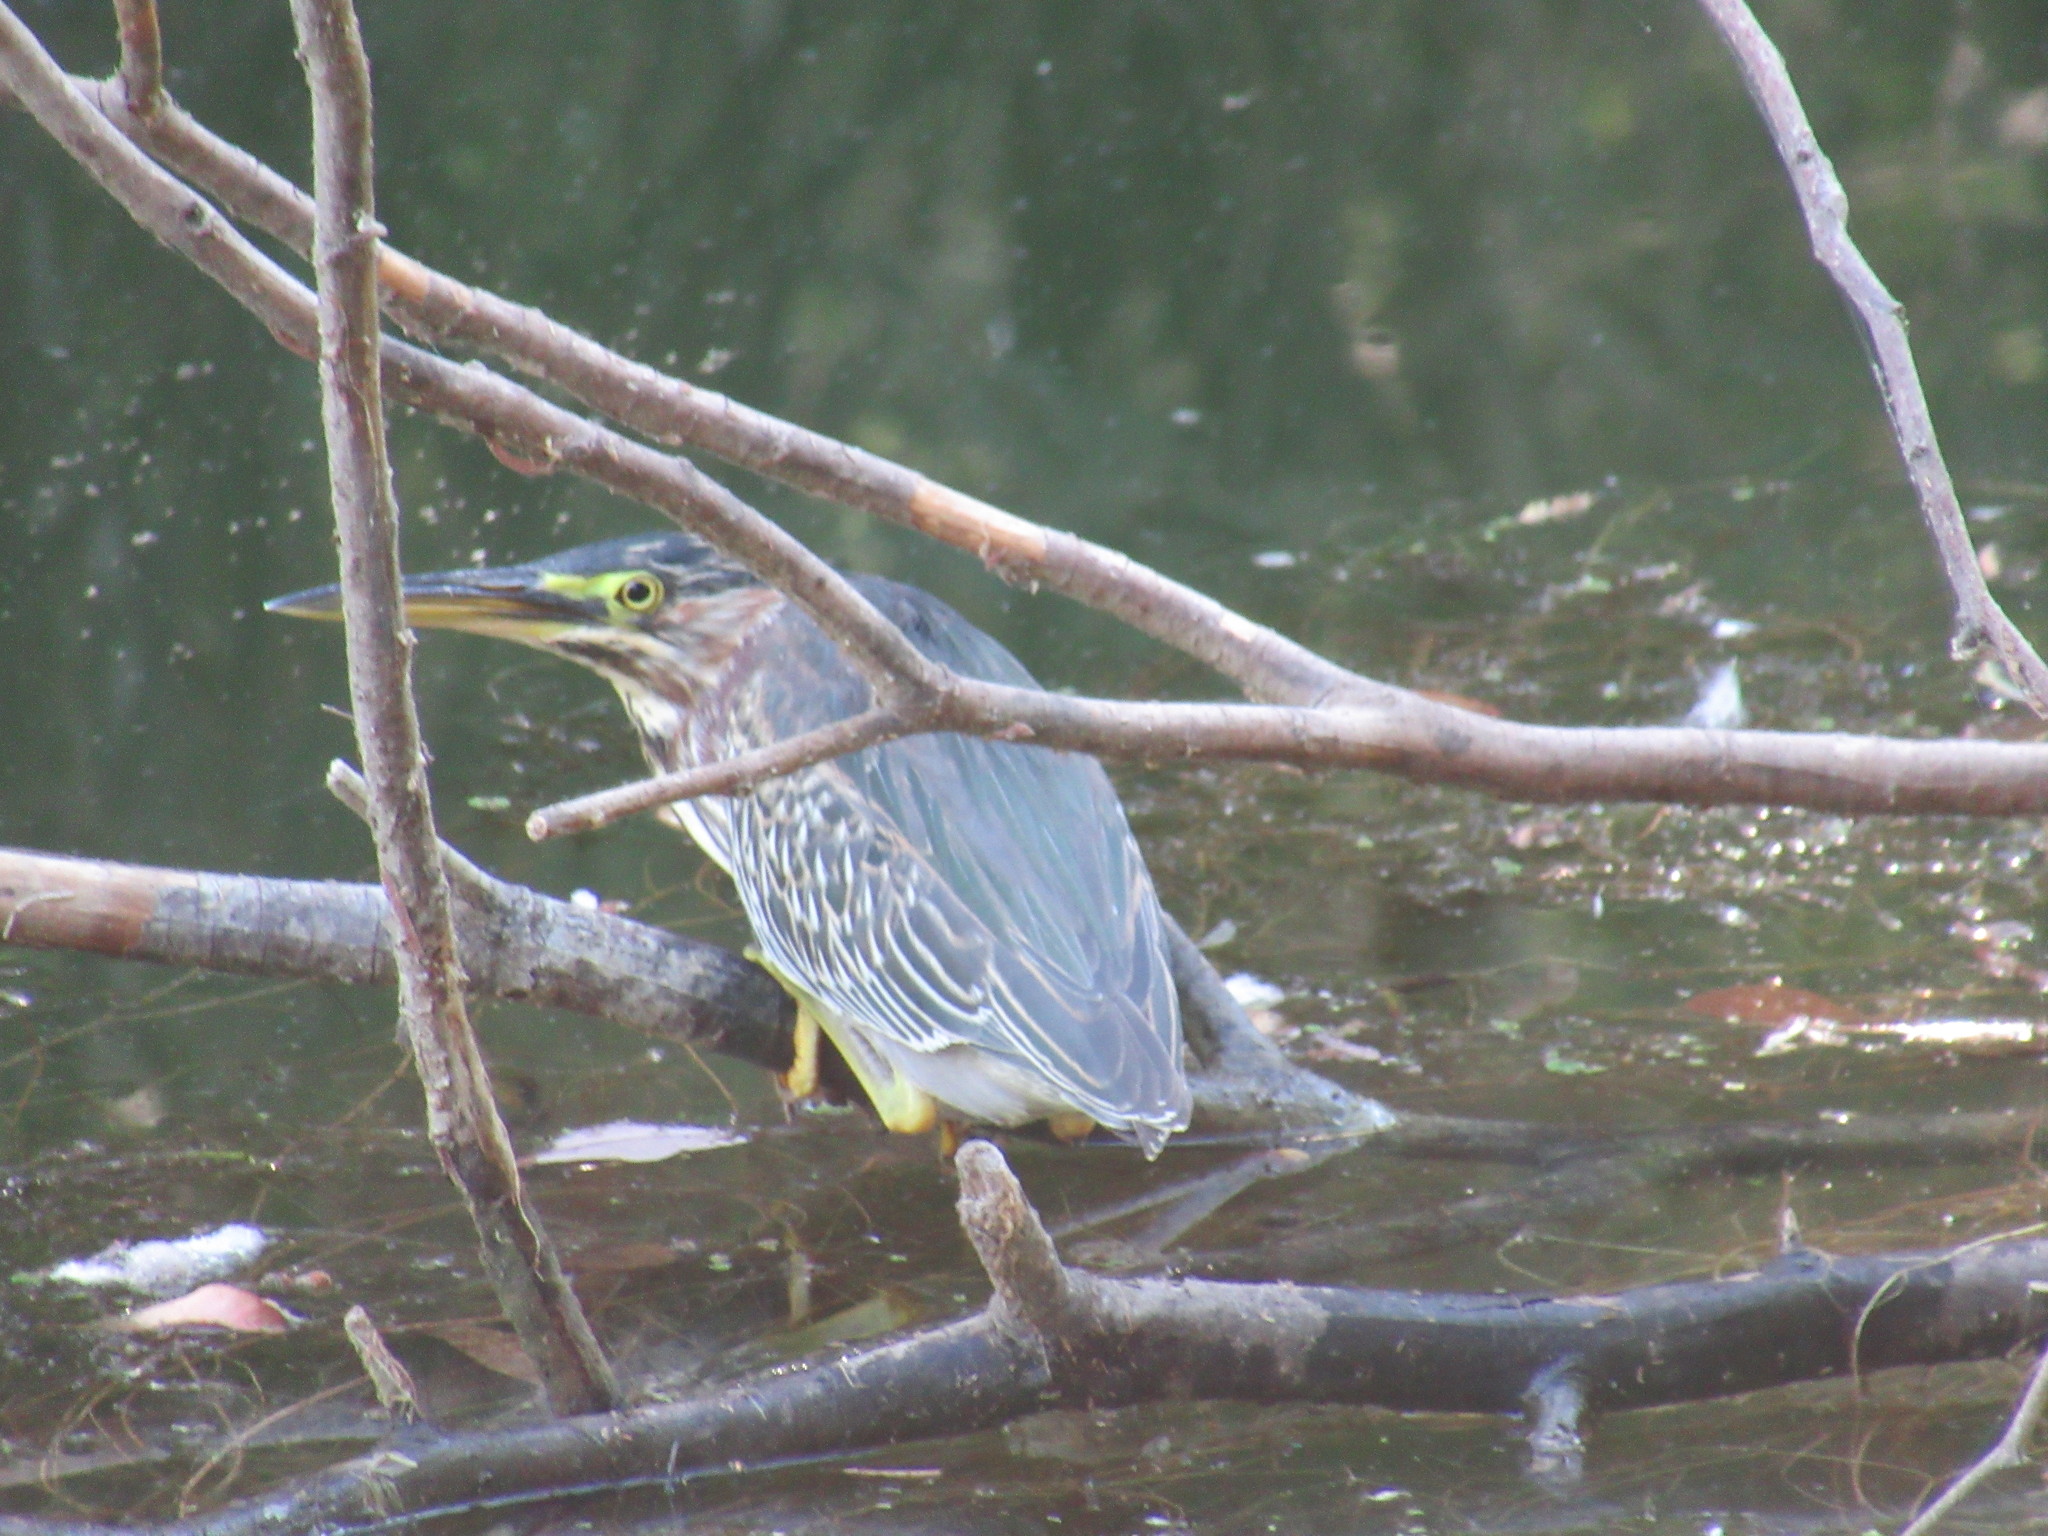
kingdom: Animalia
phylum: Chordata
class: Aves
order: Pelecaniformes
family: Ardeidae
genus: Butorides
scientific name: Butorides virescens
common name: Green heron
